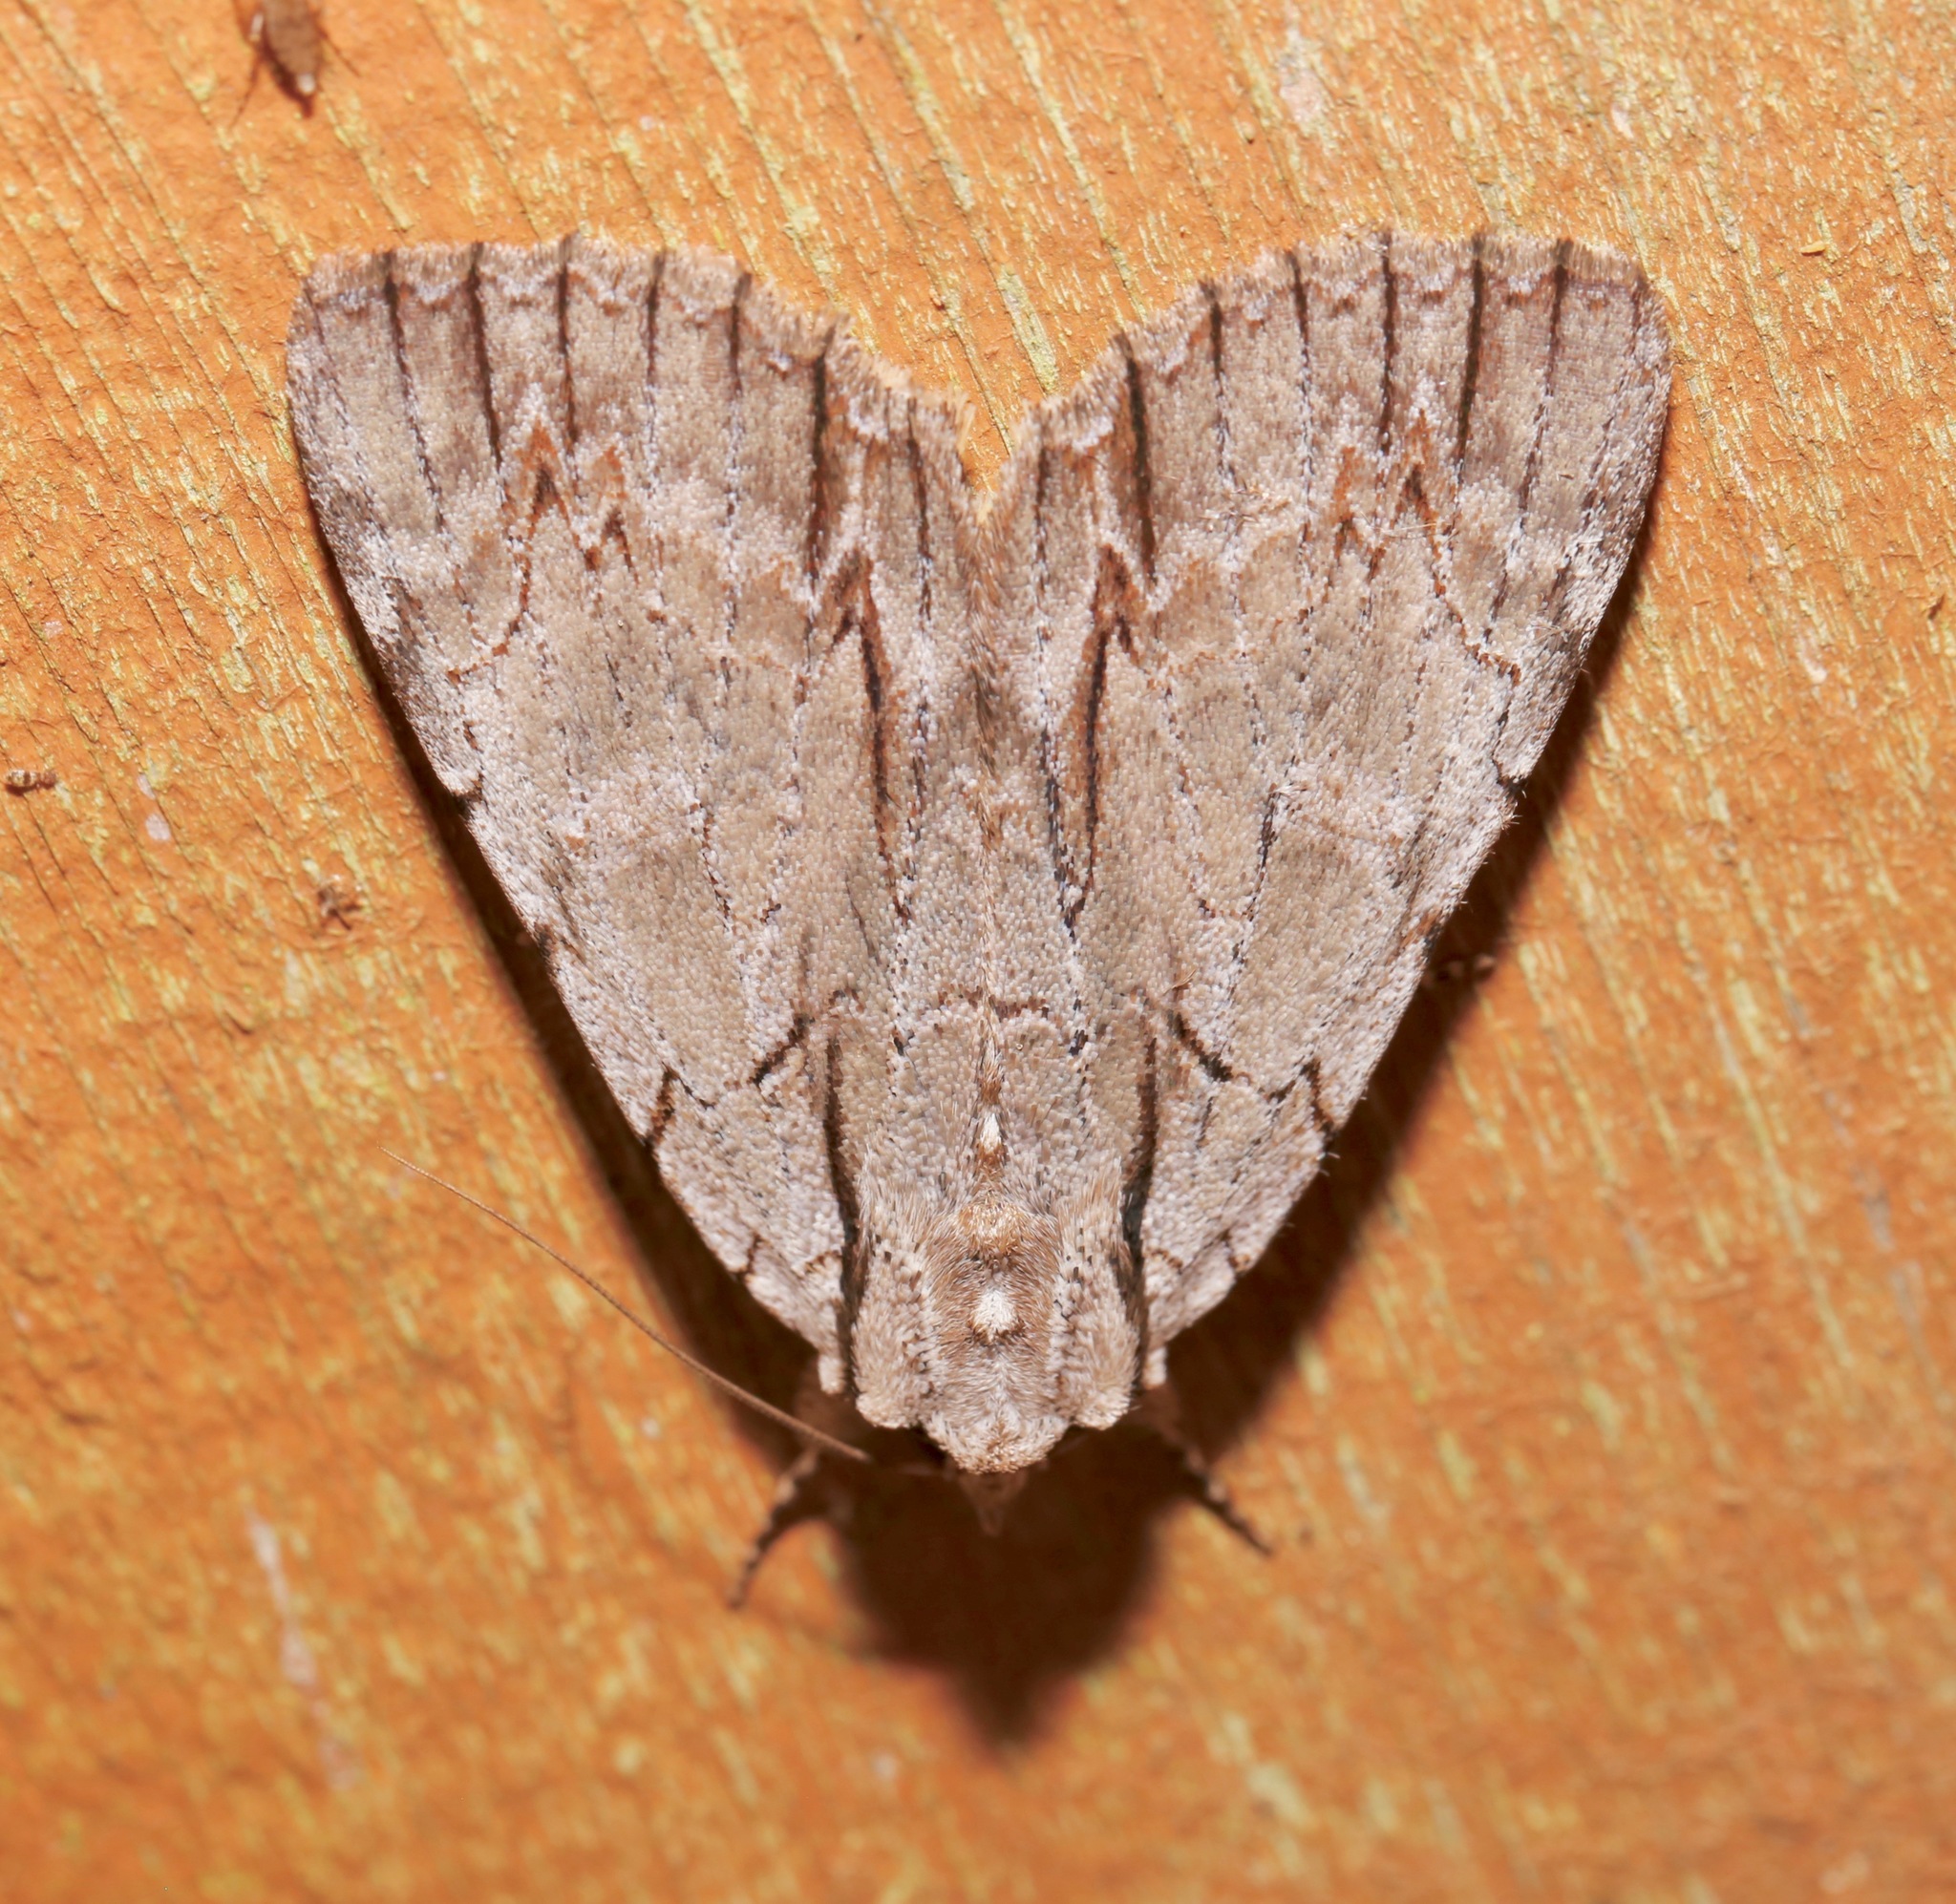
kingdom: Animalia
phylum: Arthropoda
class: Insecta
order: Lepidoptera
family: Erebidae
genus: Catocala
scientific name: Catocala clintonii
